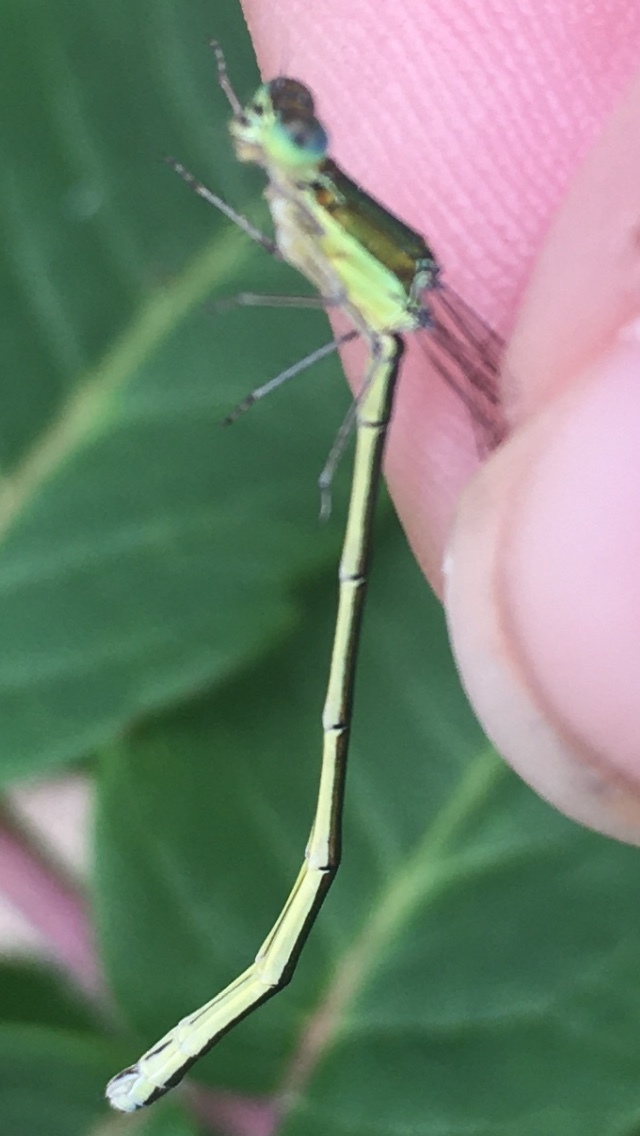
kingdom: Animalia
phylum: Arthropoda
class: Insecta
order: Odonata
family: Coenagrionidae
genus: Nehalennia
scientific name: Nehalennia irene
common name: Sedge sprite
